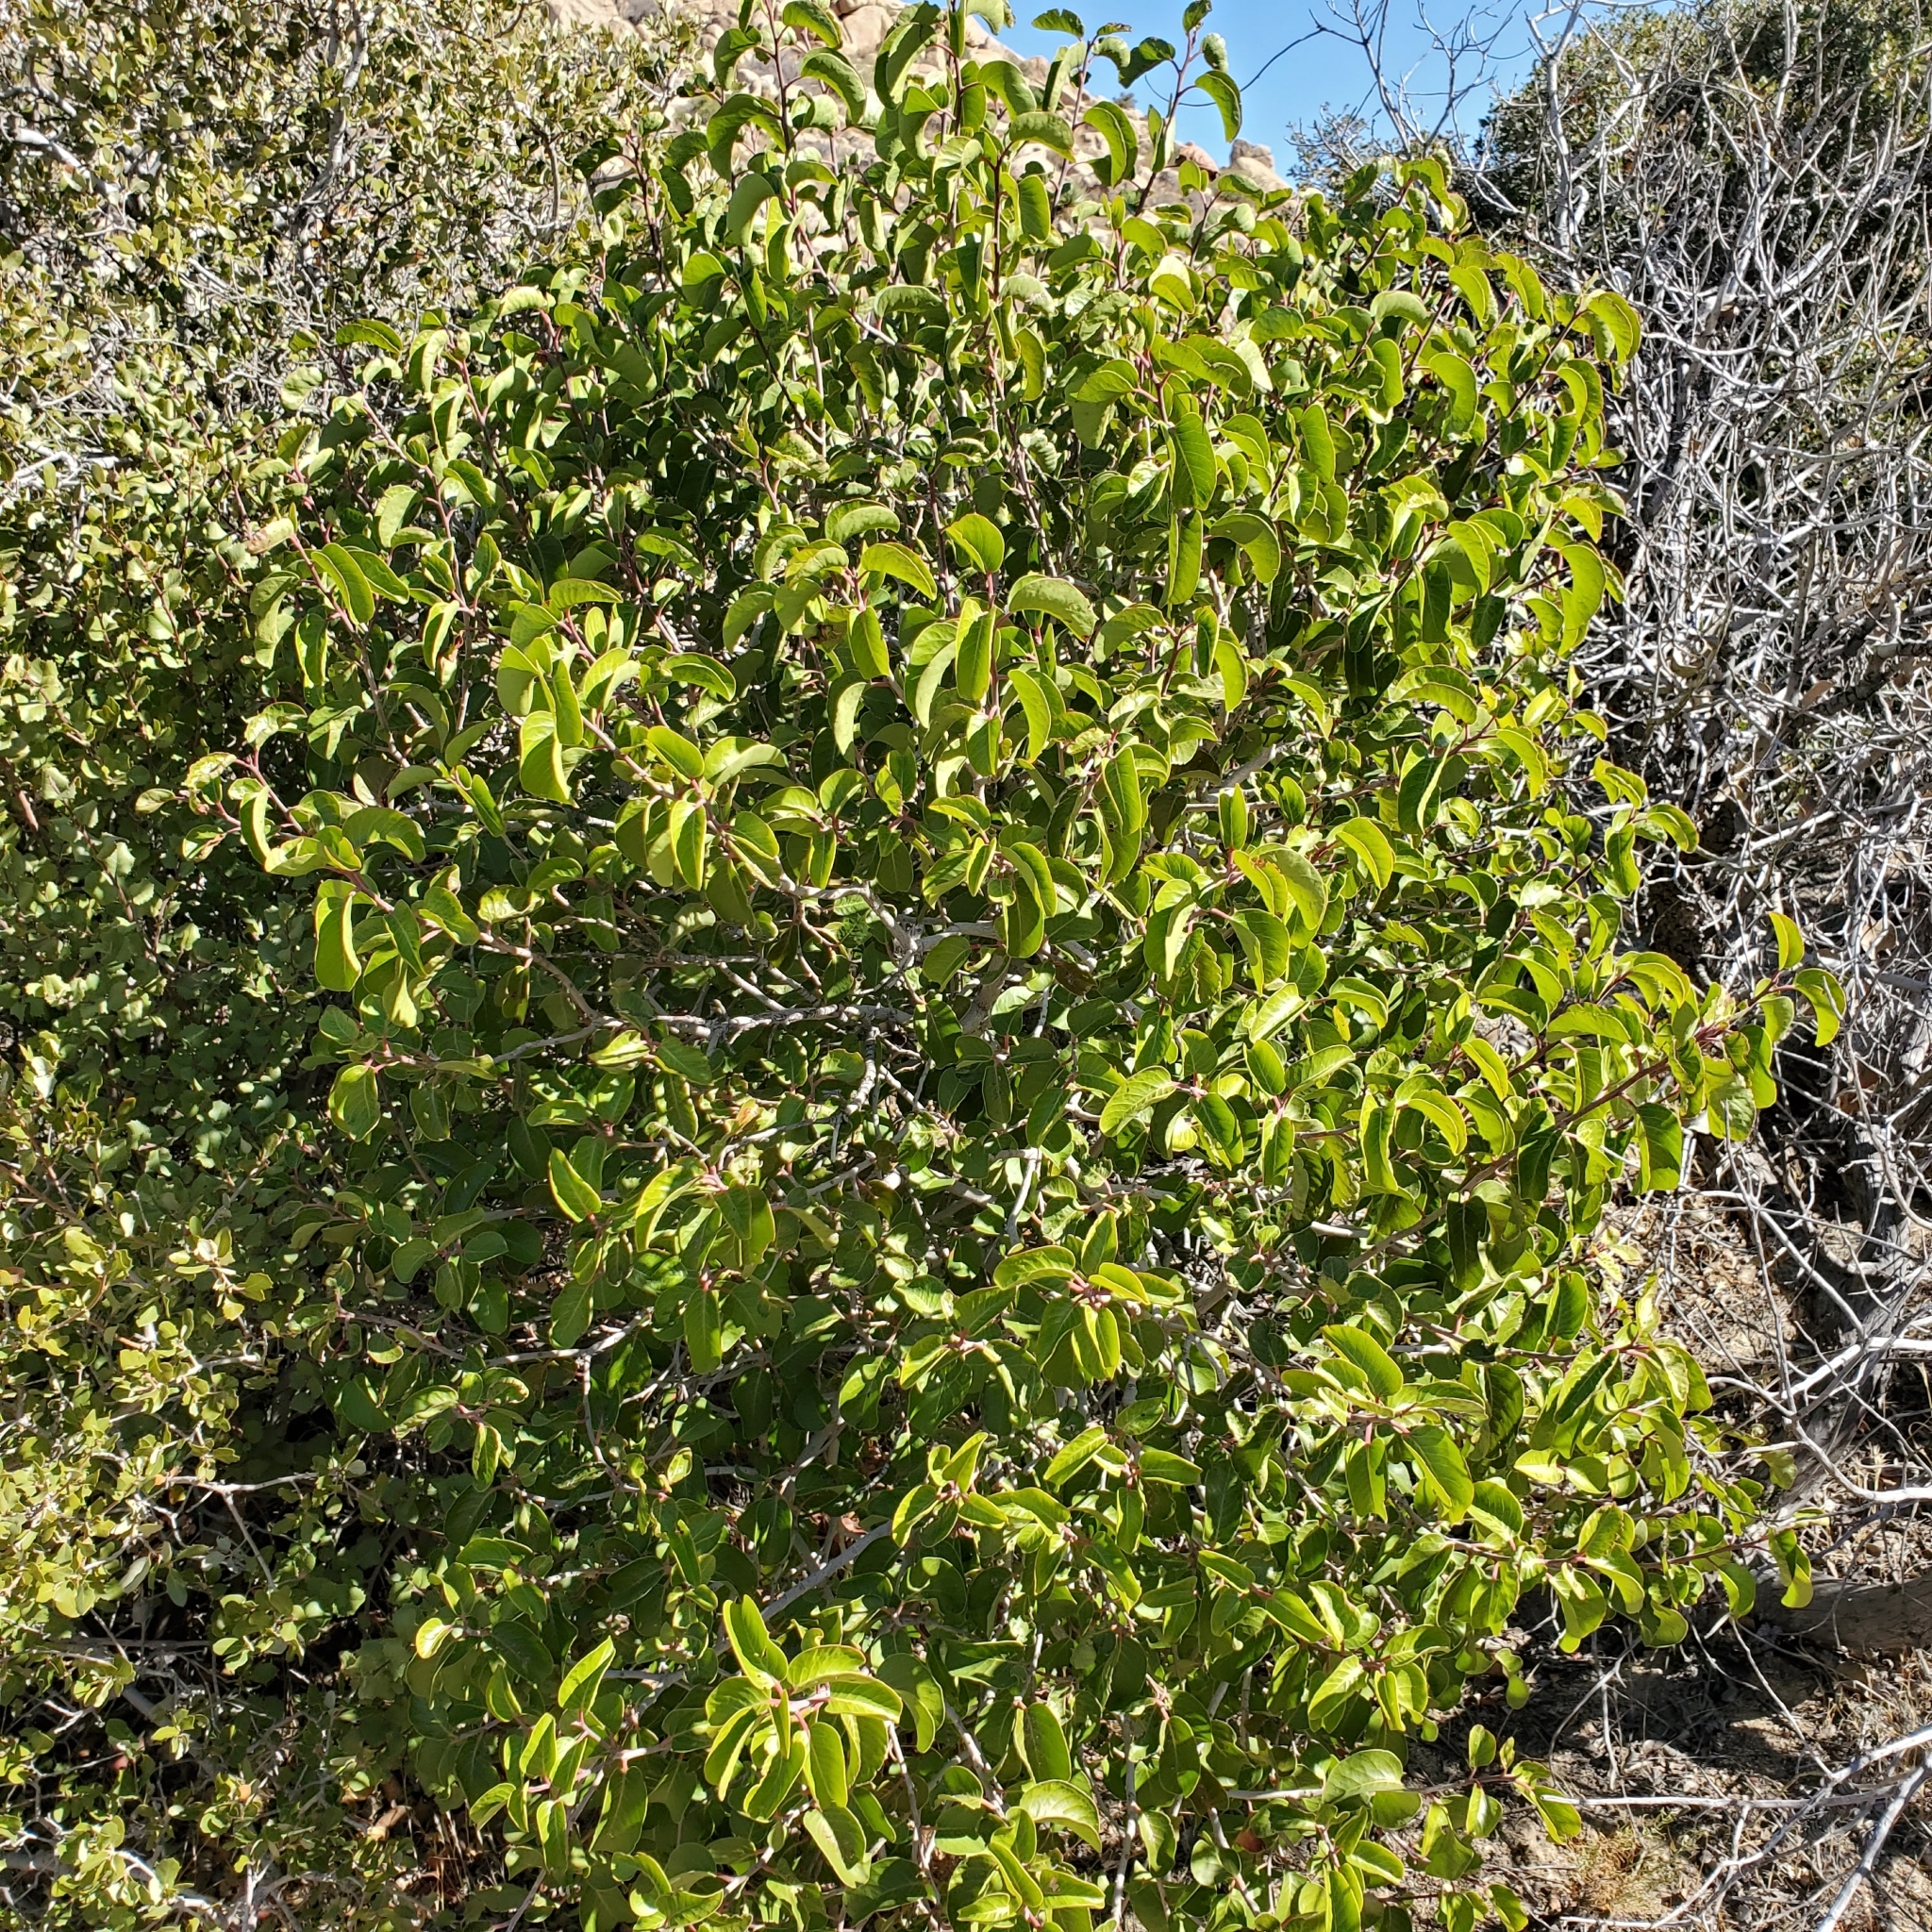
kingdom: Plantae
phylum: Tracheophyta
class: Magnoliopsida
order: Sapindales
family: Anacardiaceae
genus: Rhus
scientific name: Rhus ovata
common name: Sugar sumac
